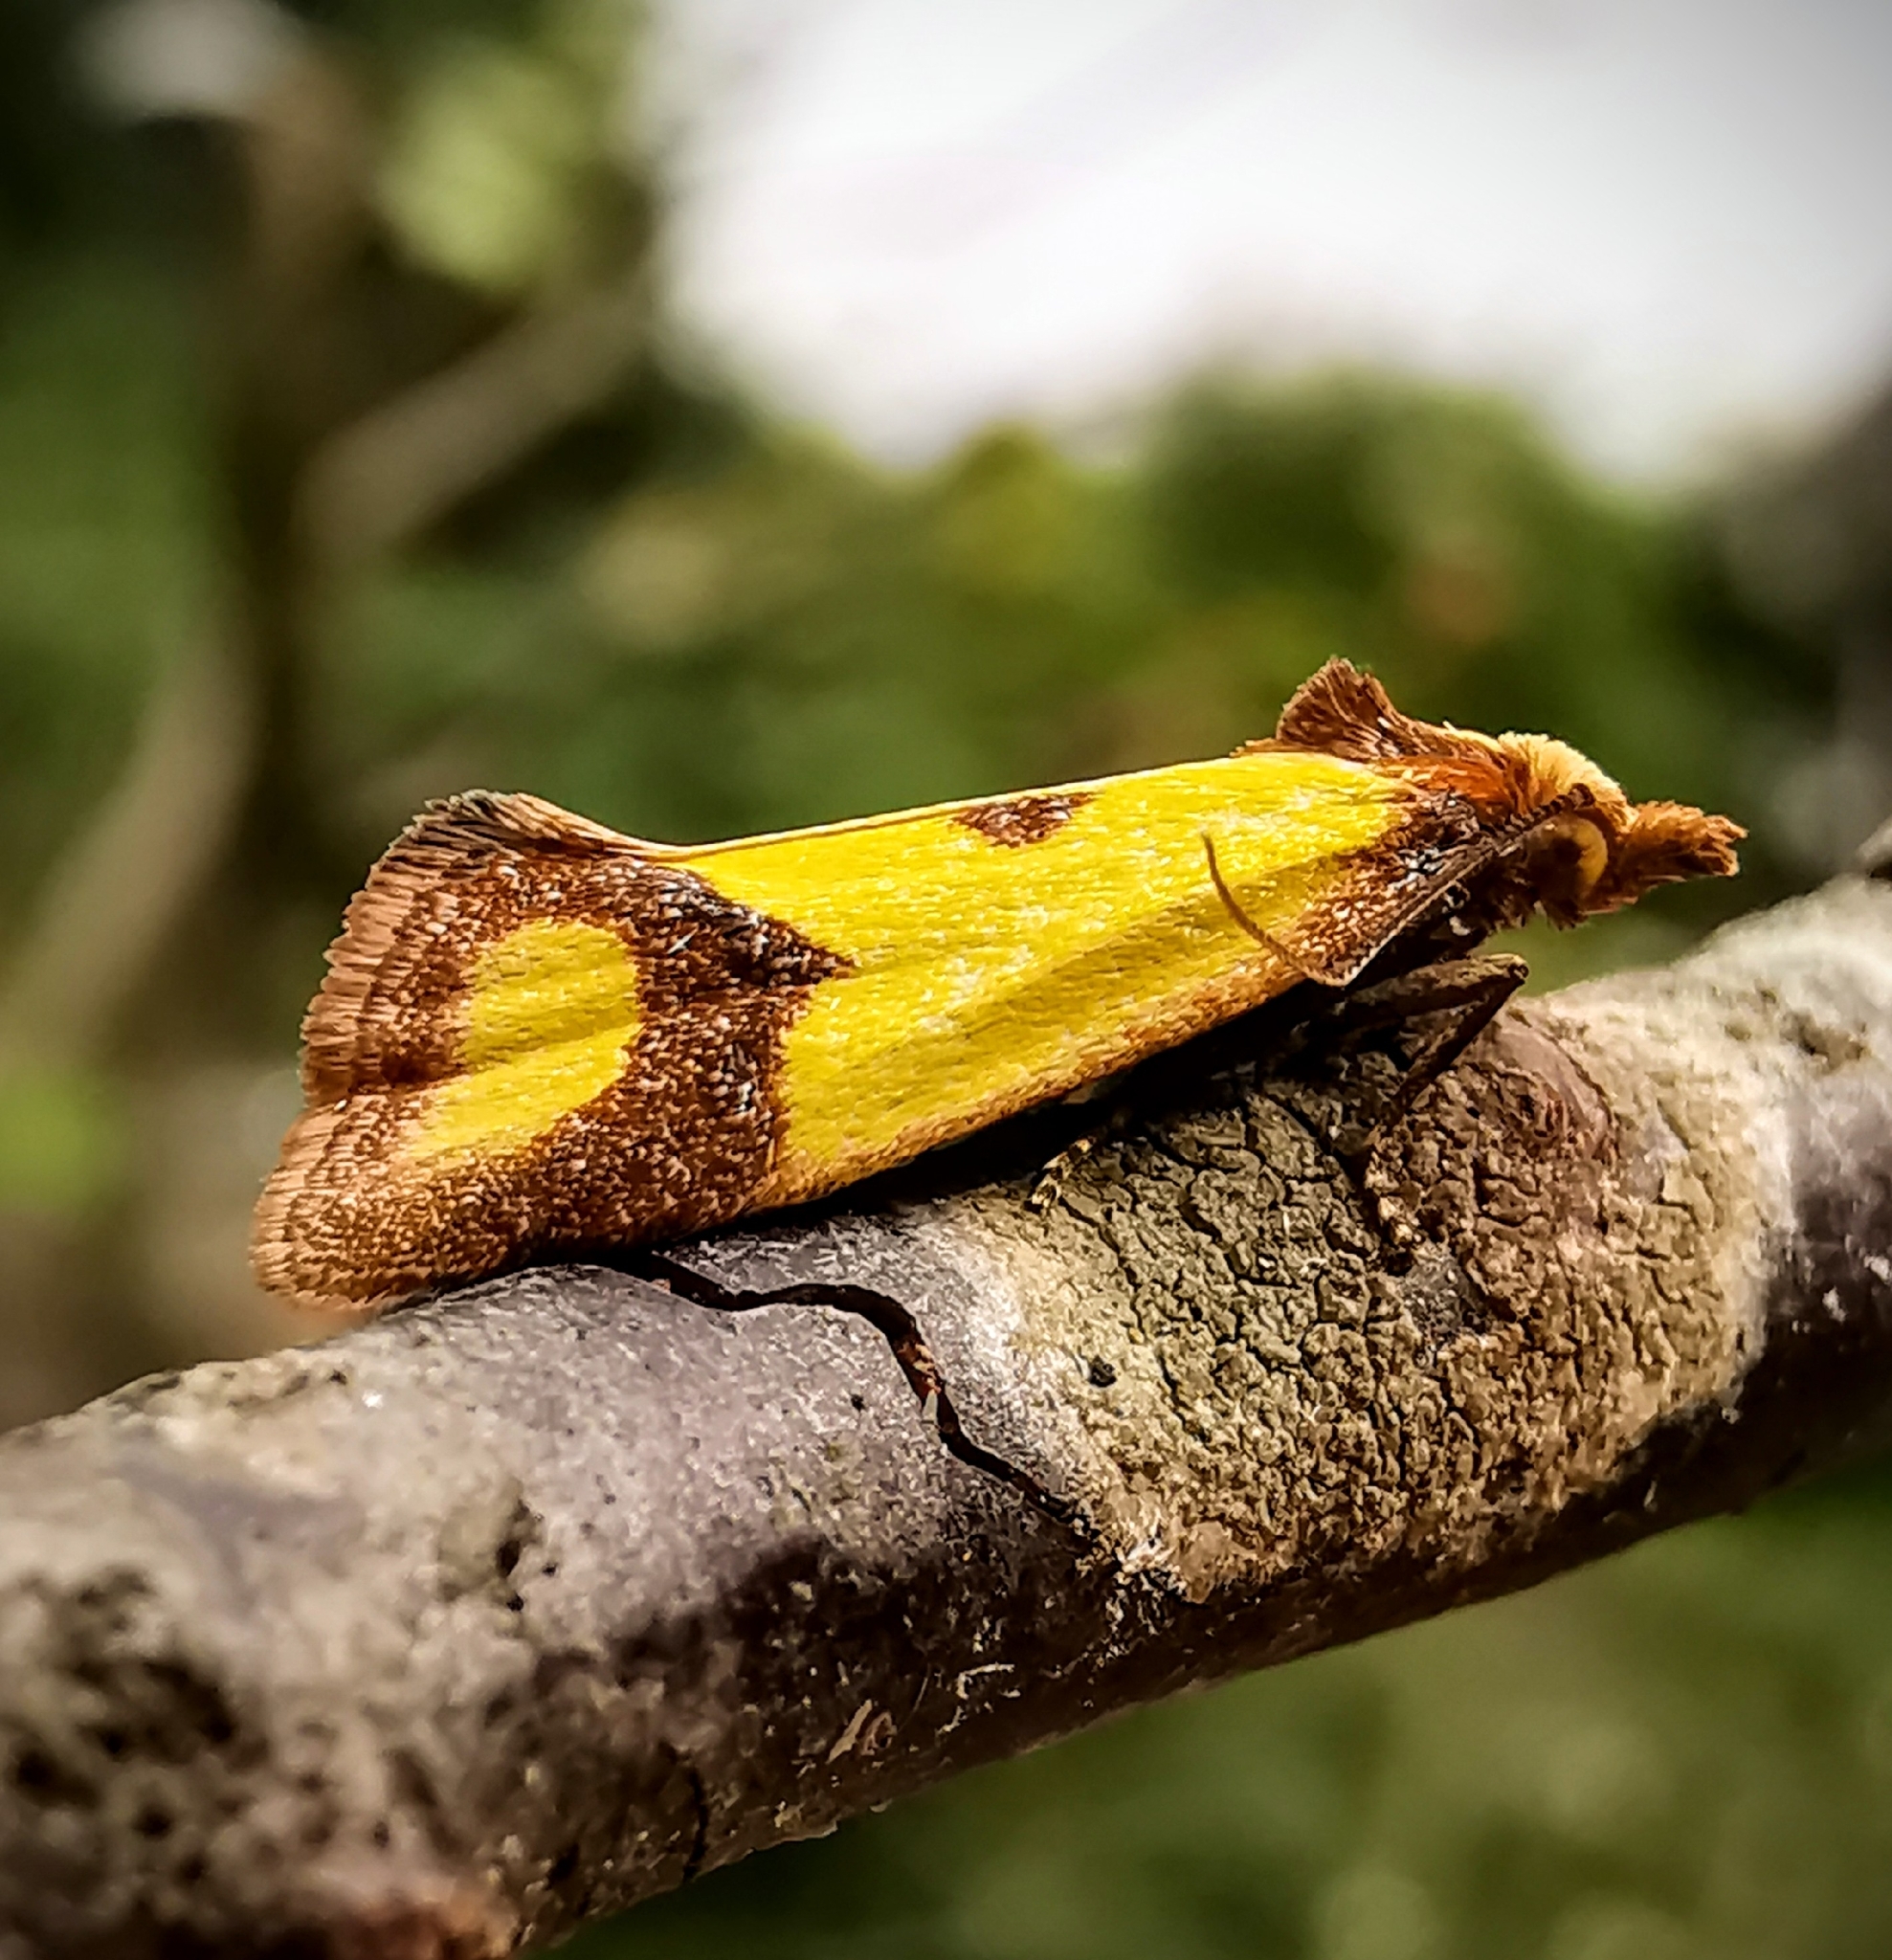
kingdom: Animalia
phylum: Arthropoda
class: Insecta
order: Lepidoptera
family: Tortricidae
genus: Agapeta
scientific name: Agapeta zoegana
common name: Sulfur knapweed root moth
